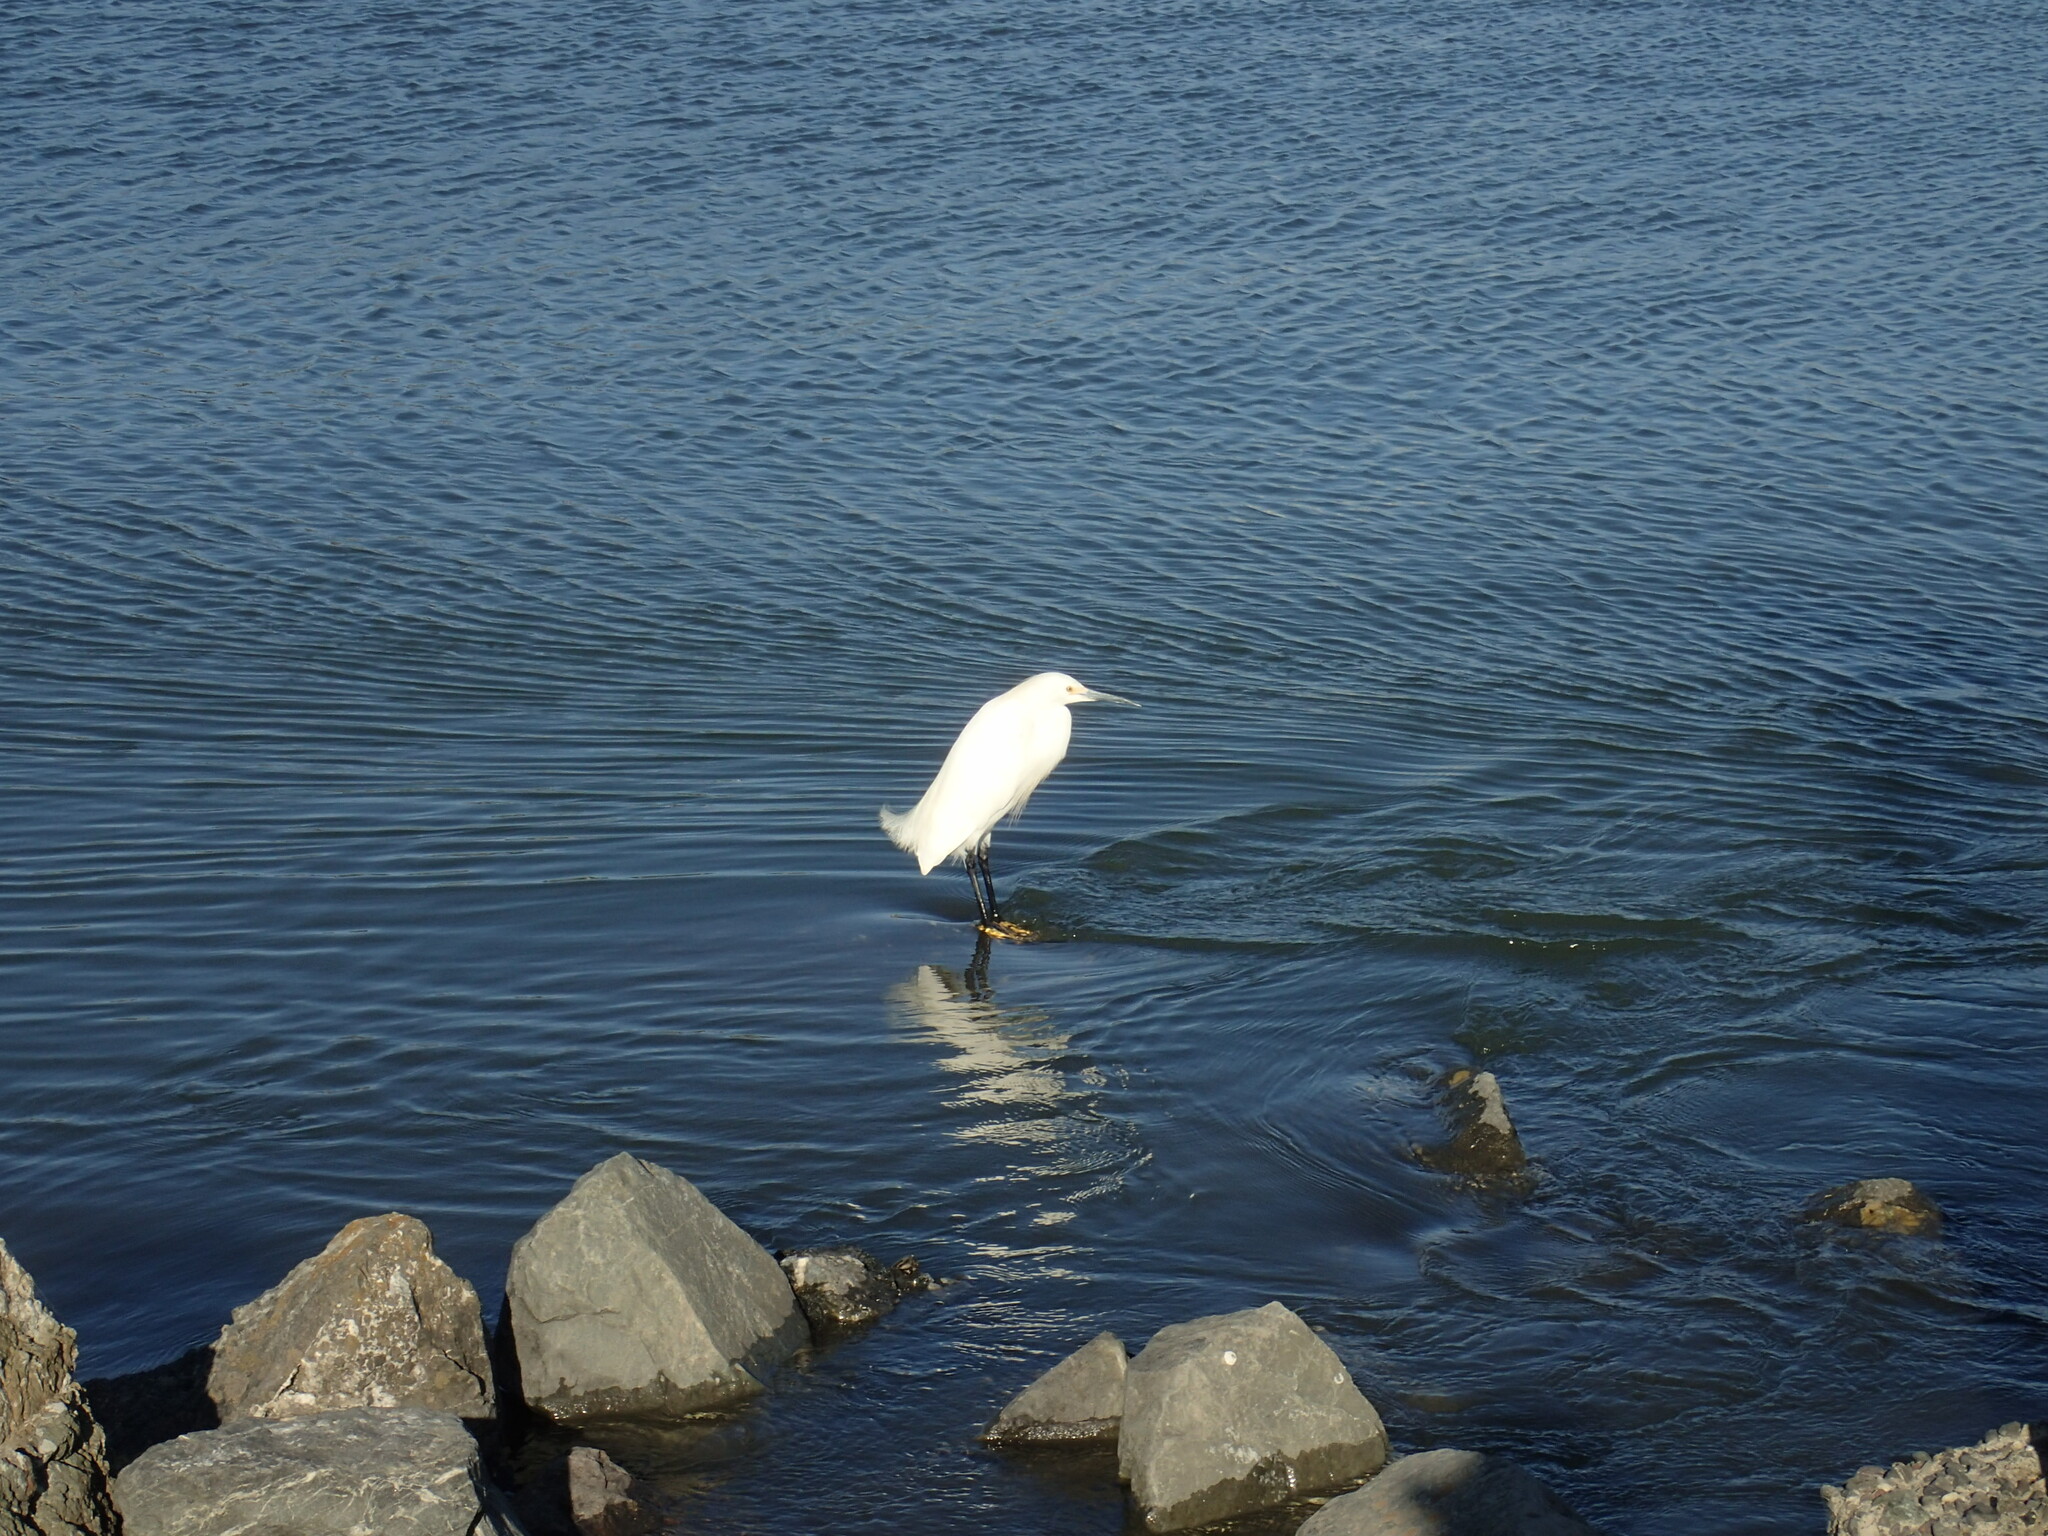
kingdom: Animalia
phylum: Chordata
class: Aves
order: Pelecaniformes
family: Ardeidae
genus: Egretta
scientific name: Egretta thula
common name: Snowy egret
